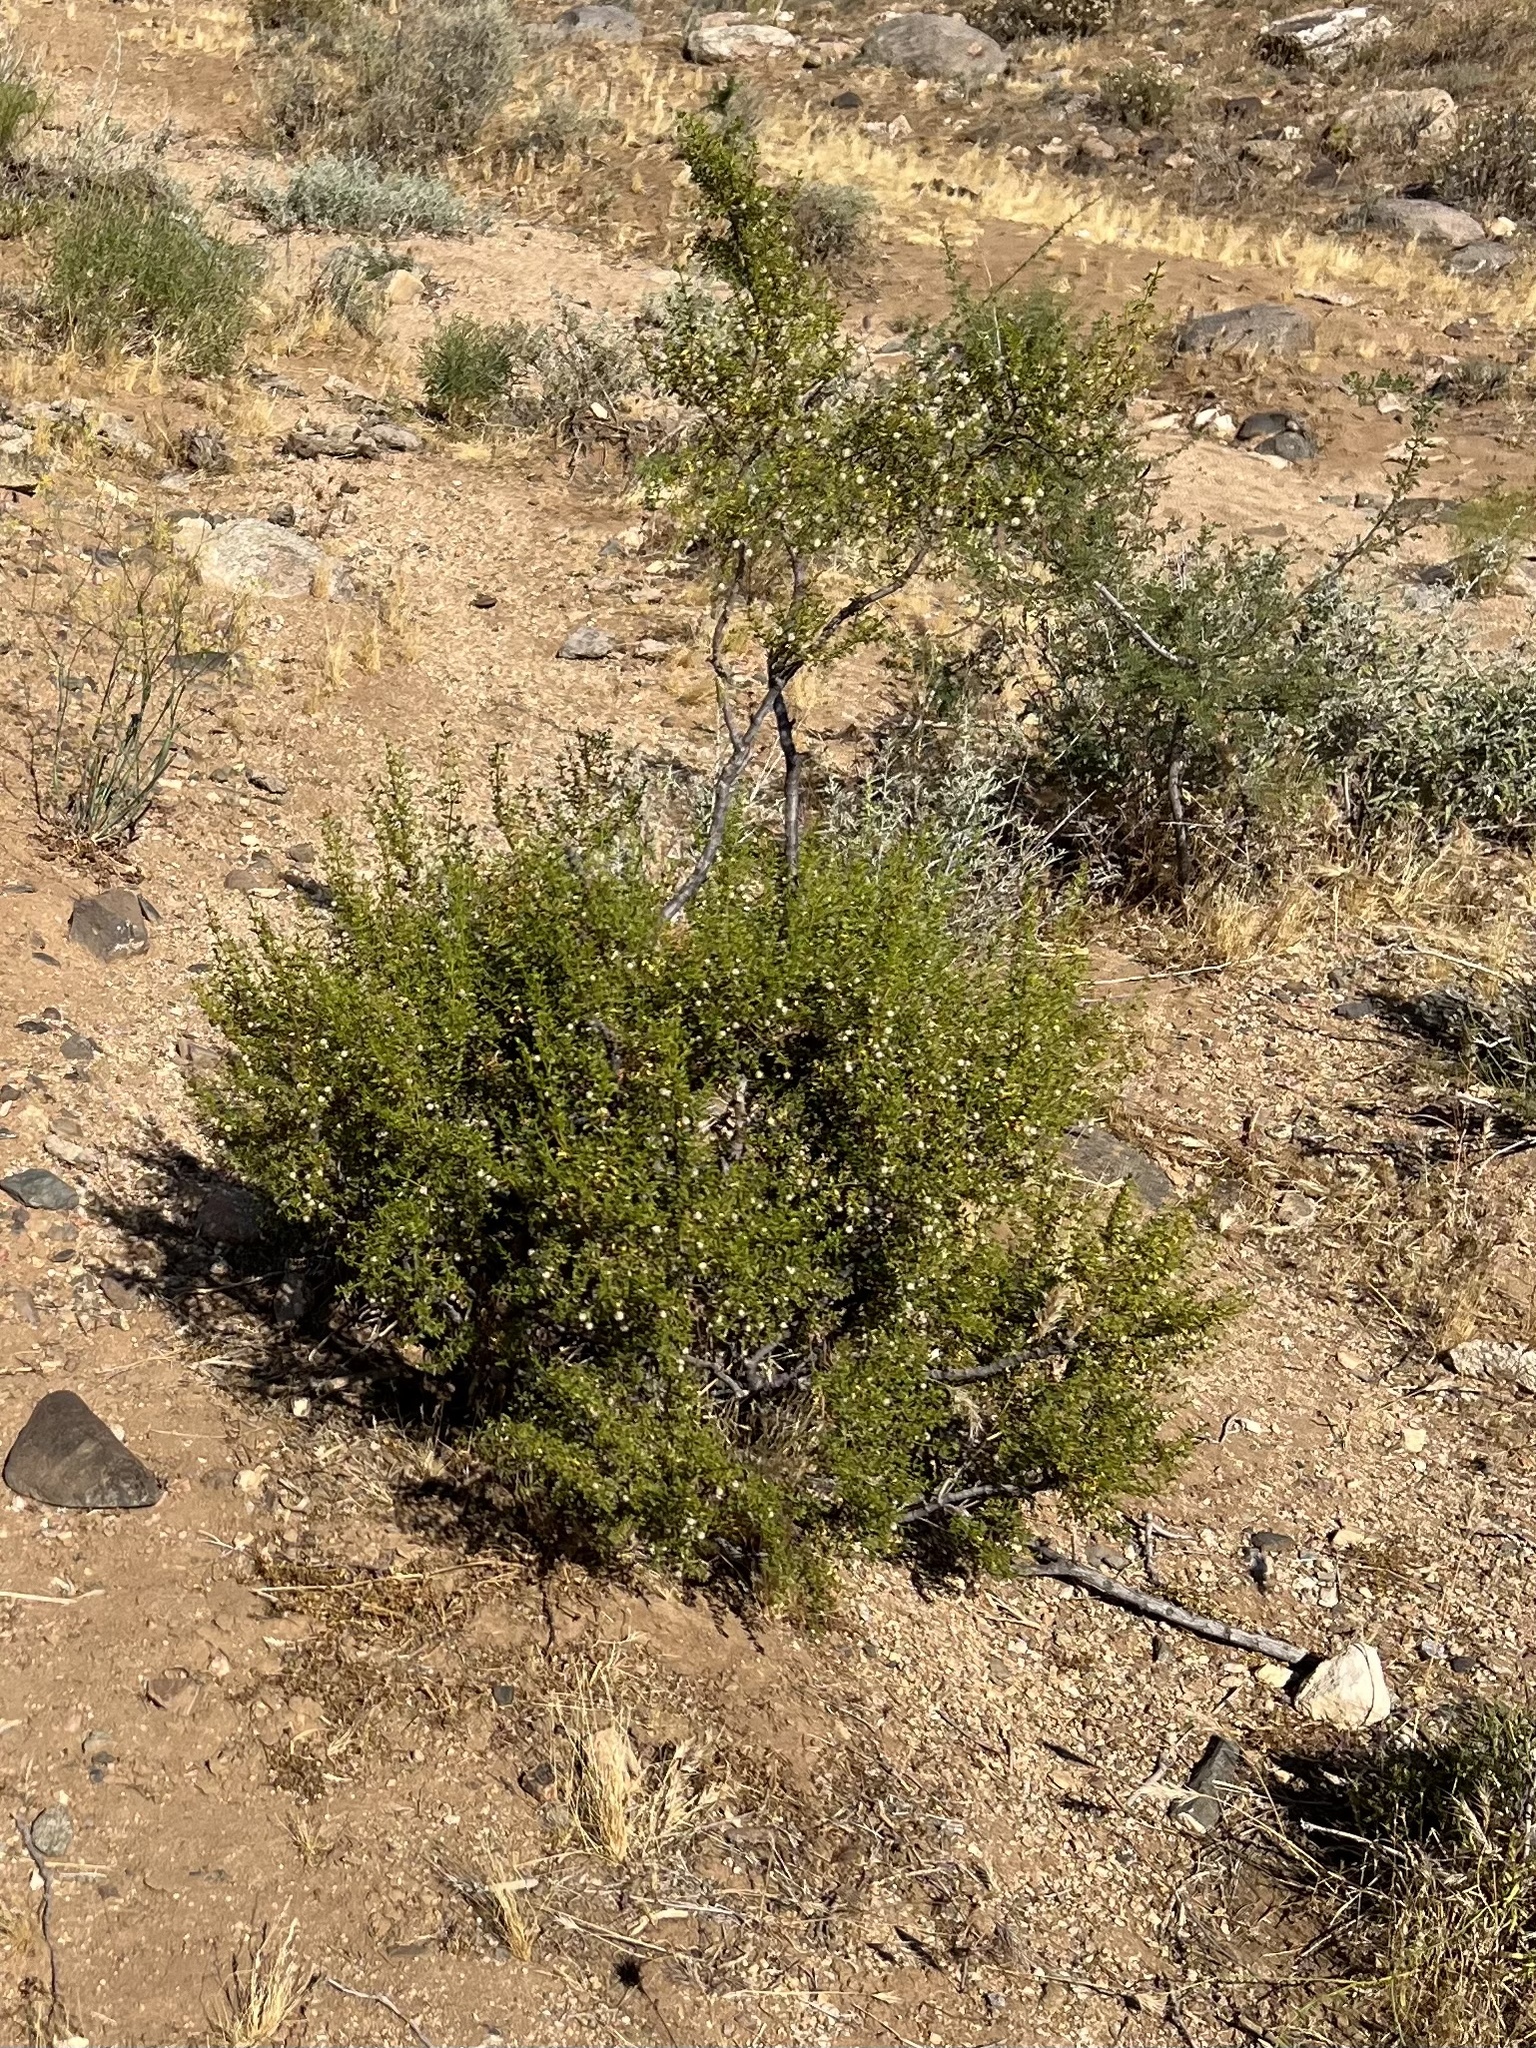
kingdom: Plantae
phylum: Tracheophyta
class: Magnoliopsida
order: Zygophyllales
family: Zygophyllaceae
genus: Larrea
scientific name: Larrea tridentata
